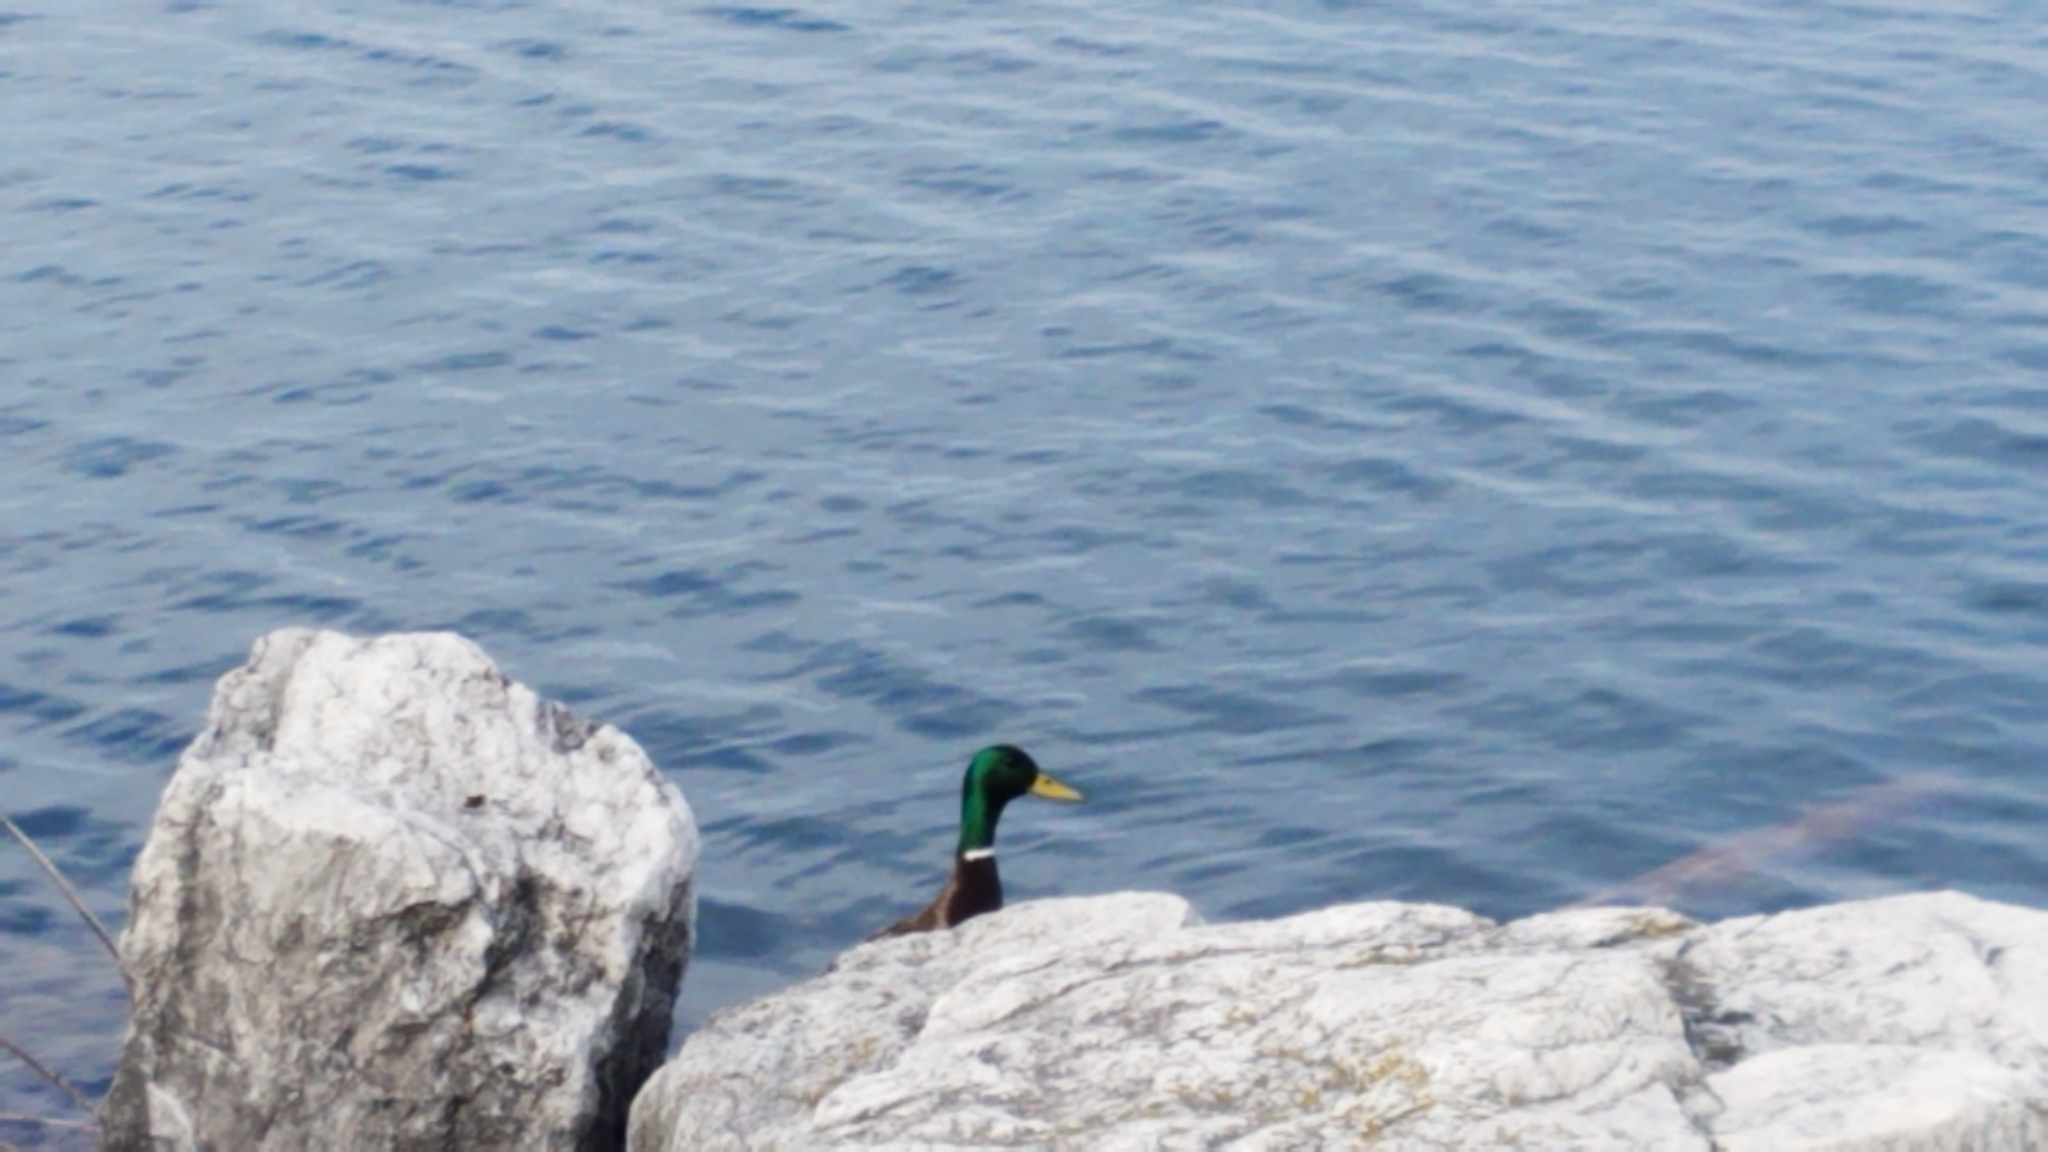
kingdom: Animalia
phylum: Chordata
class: Aves
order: Anseriformes
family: Anatidae
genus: Anas
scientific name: Anas platyrhynchos
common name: Mallard
